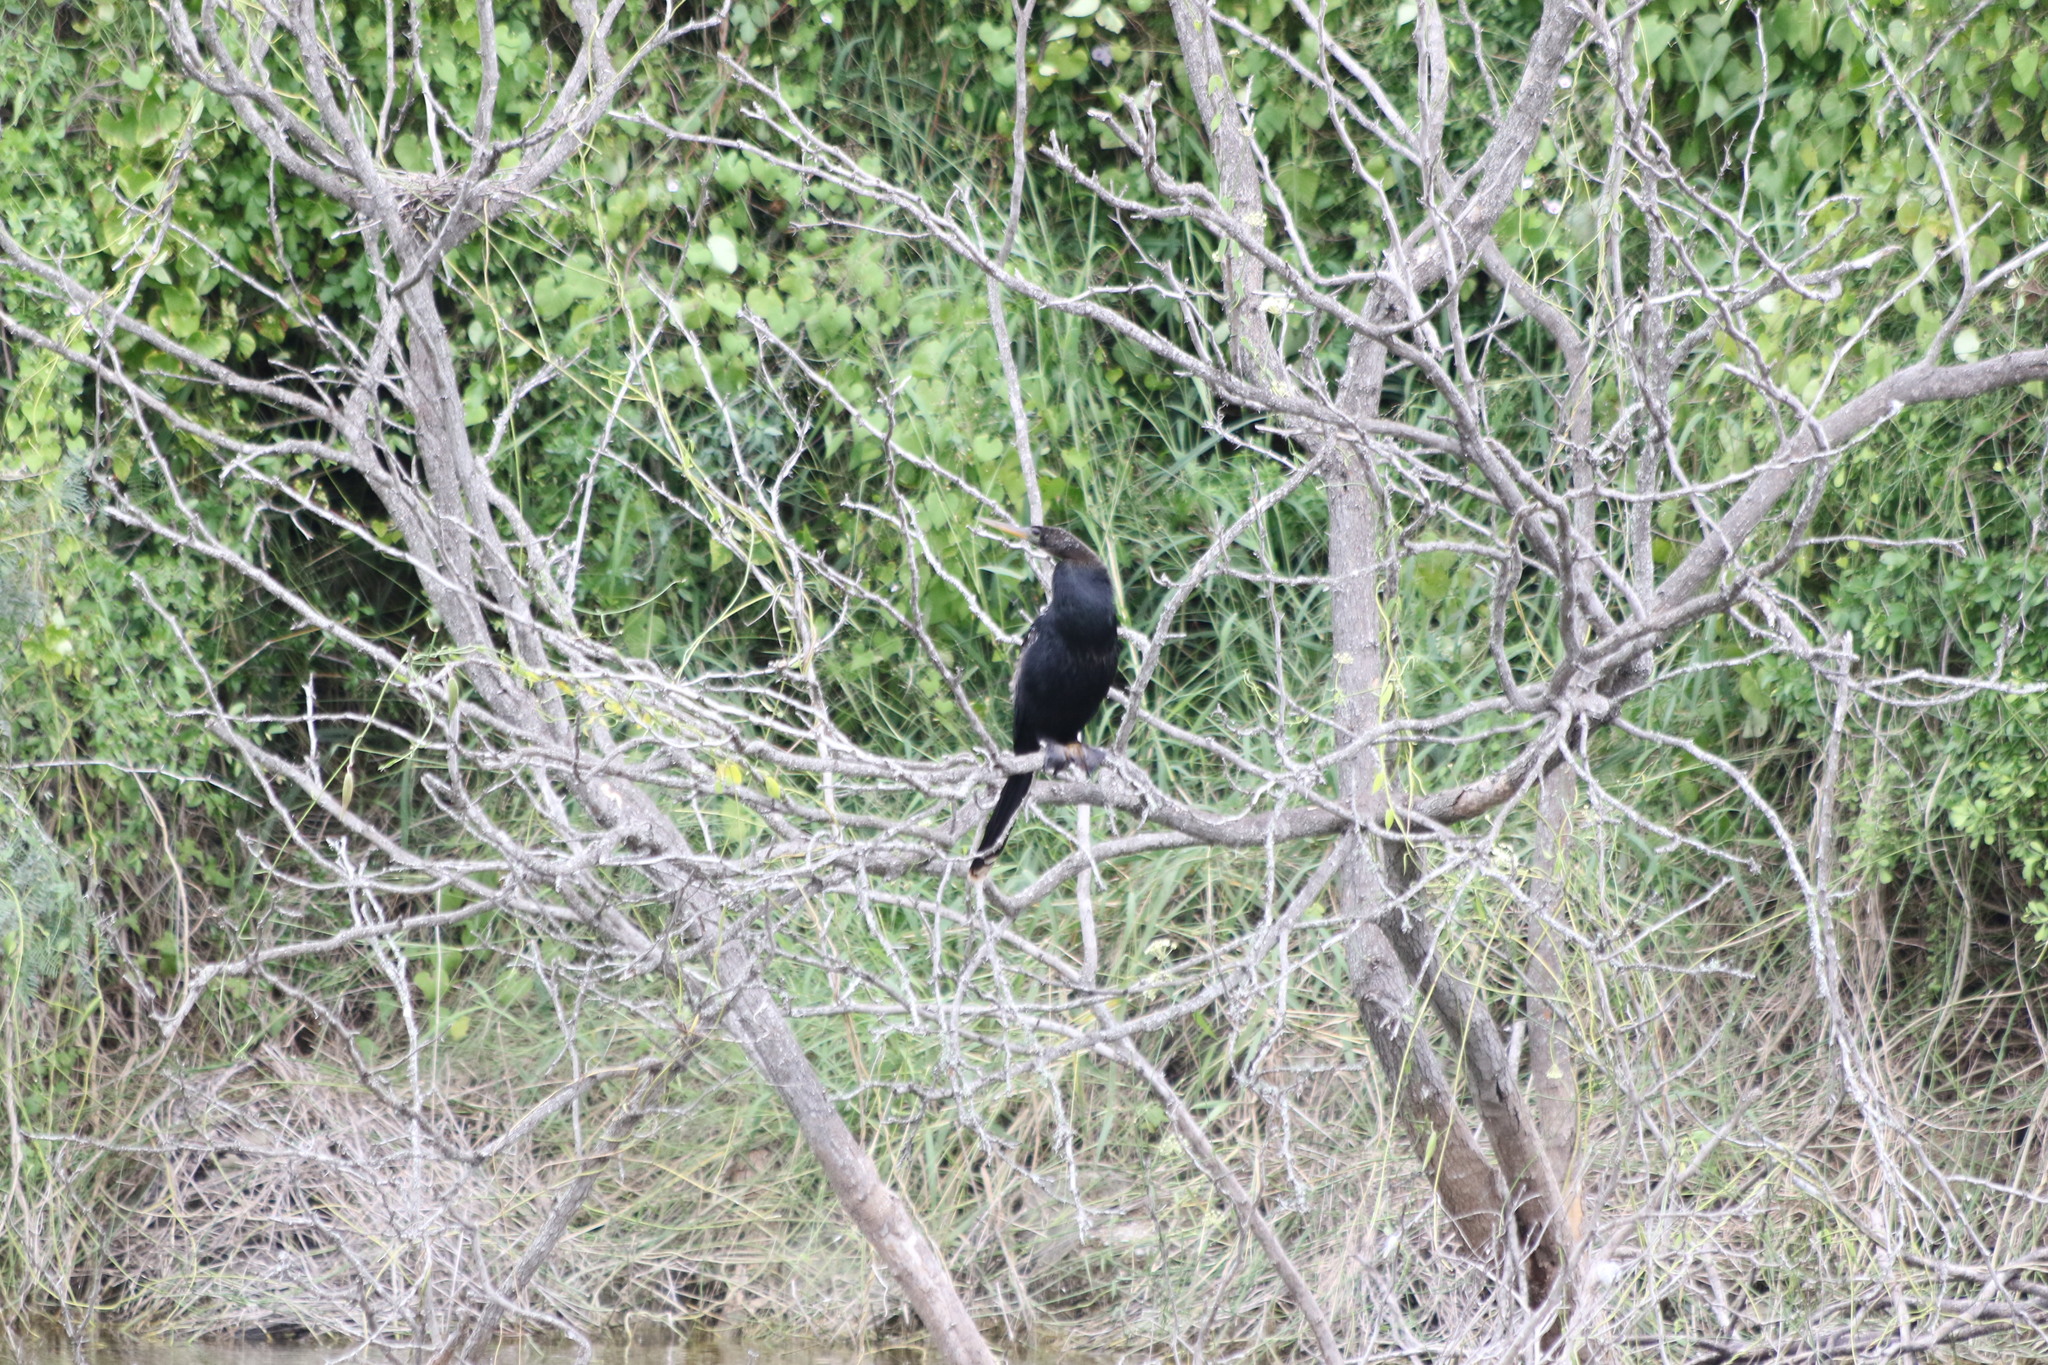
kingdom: Animalia
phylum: Chordata
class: Aves
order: Suliformes
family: Anhingidae
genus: Anhinga
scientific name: Anhinga anhinga
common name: Anhinga
